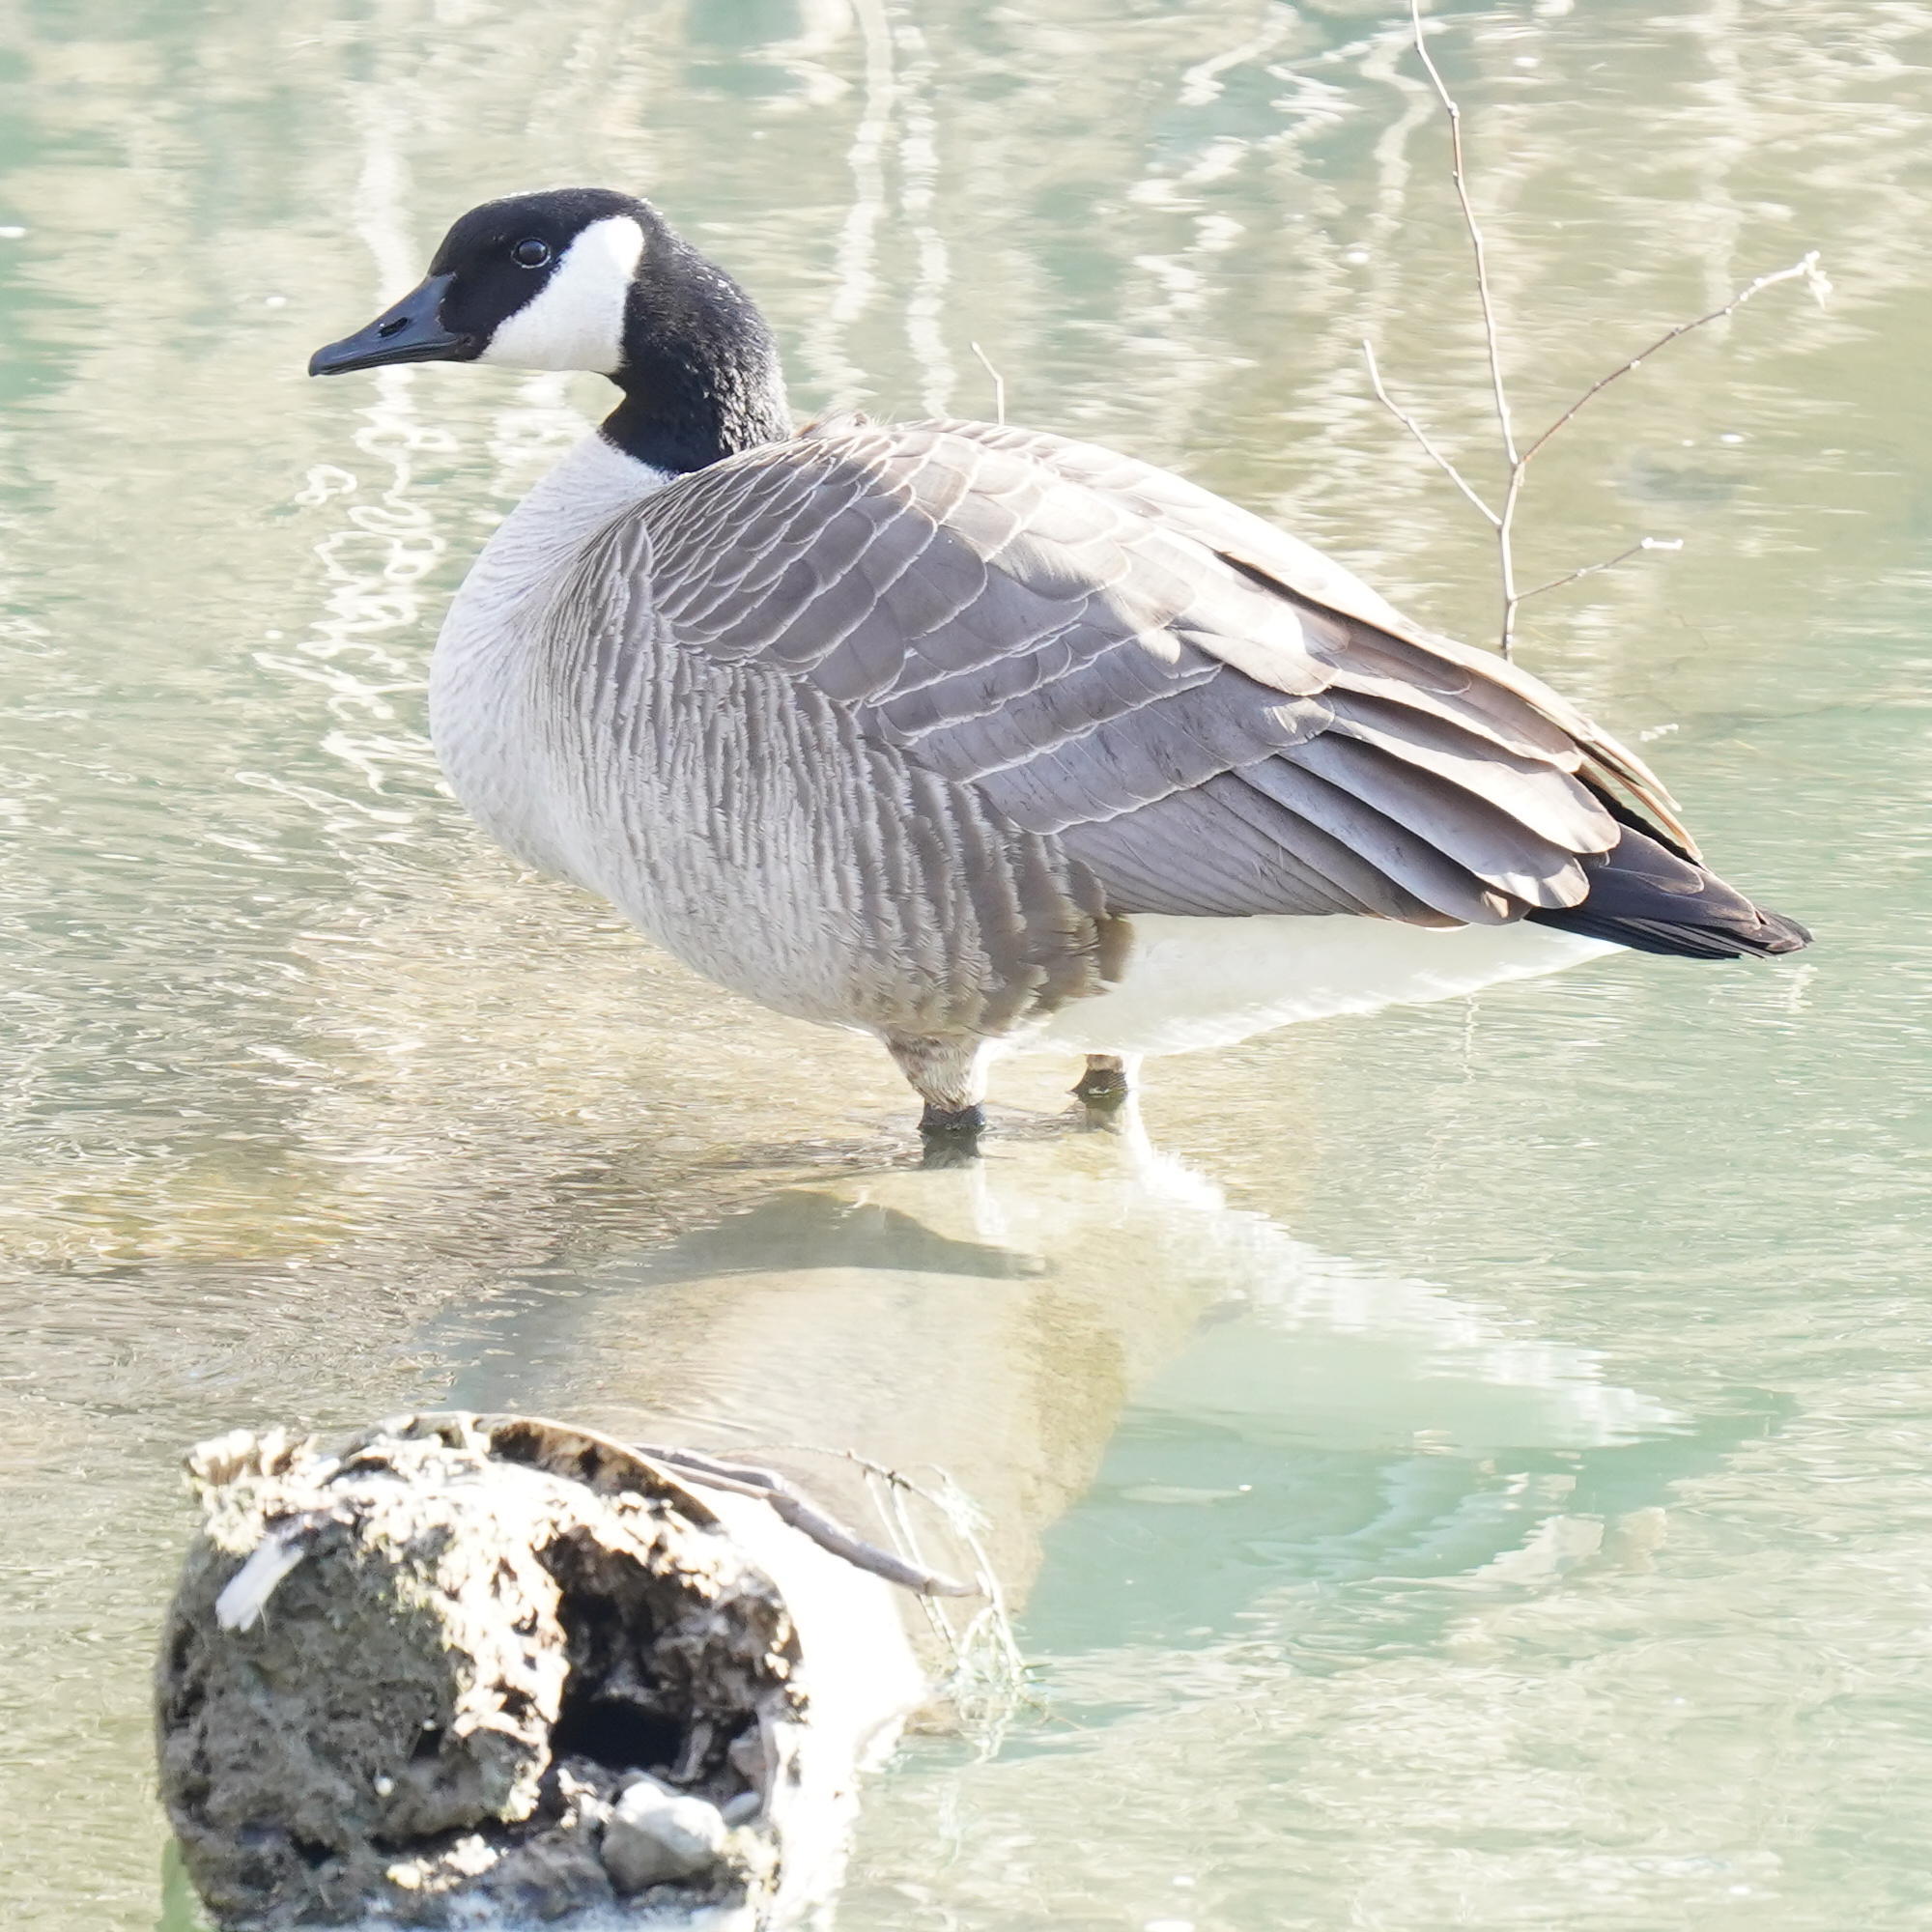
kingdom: Animalia
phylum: Chordata
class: Aves
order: Anseriformes
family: Anatidae
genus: Branta
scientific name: Branta canadensis
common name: Canada goose
